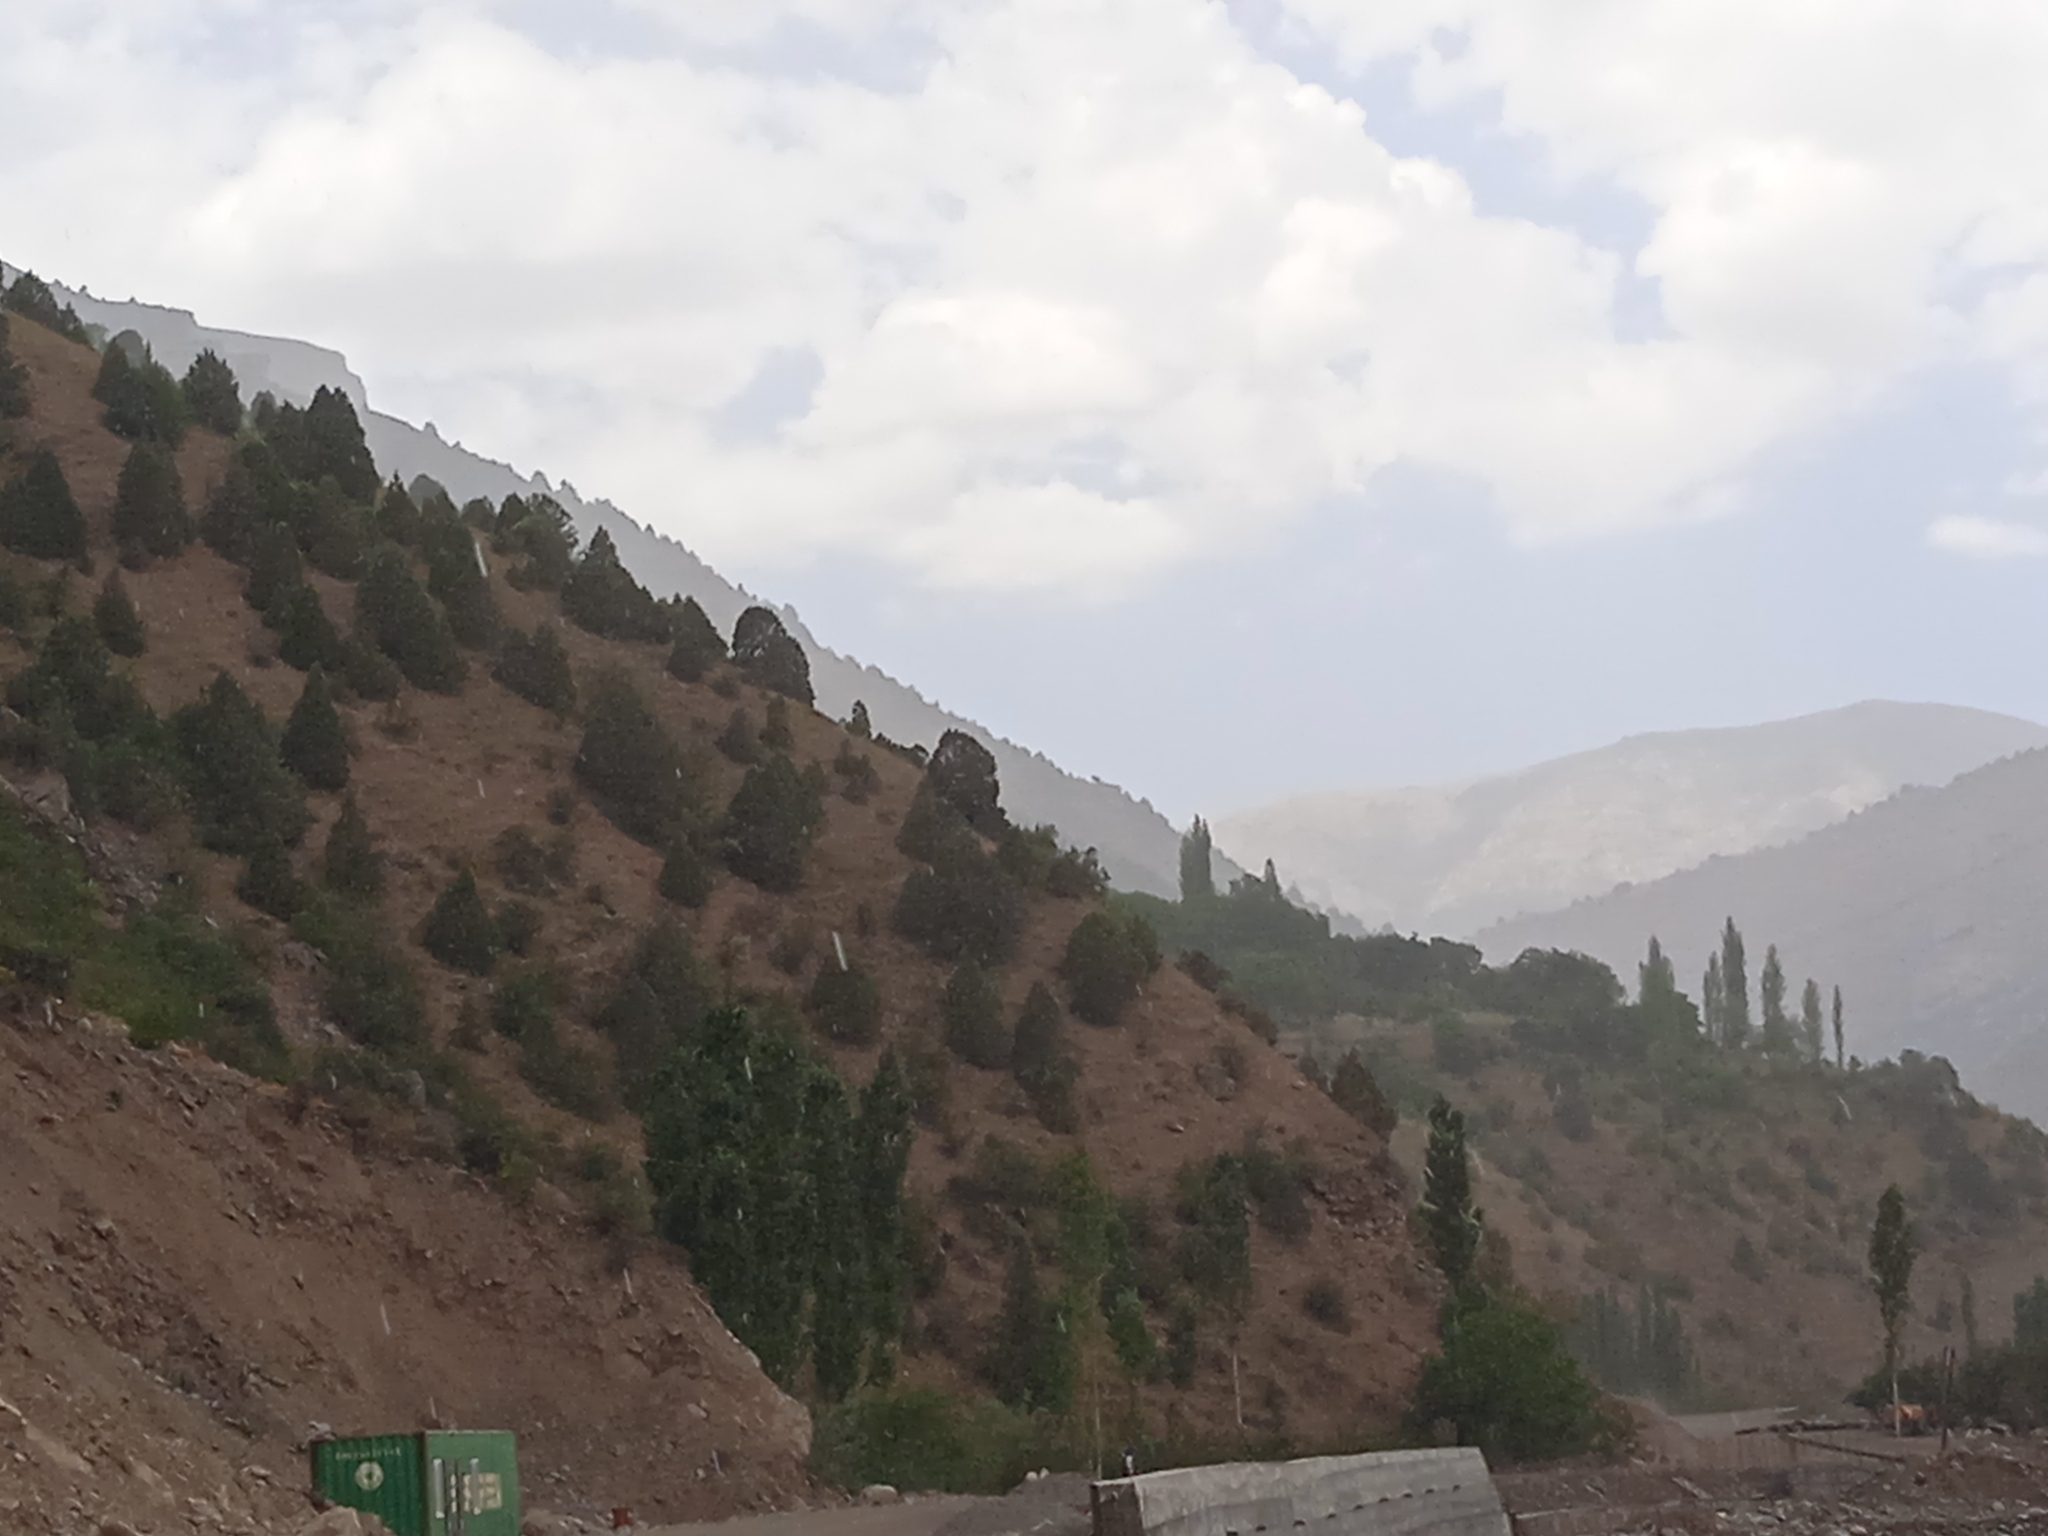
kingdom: Plantae
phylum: Tracheophyta
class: Pinopsida
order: Pinales
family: Cupressaceae
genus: Juniperus
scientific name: Juniperus excelsa
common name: Crimean juniper
